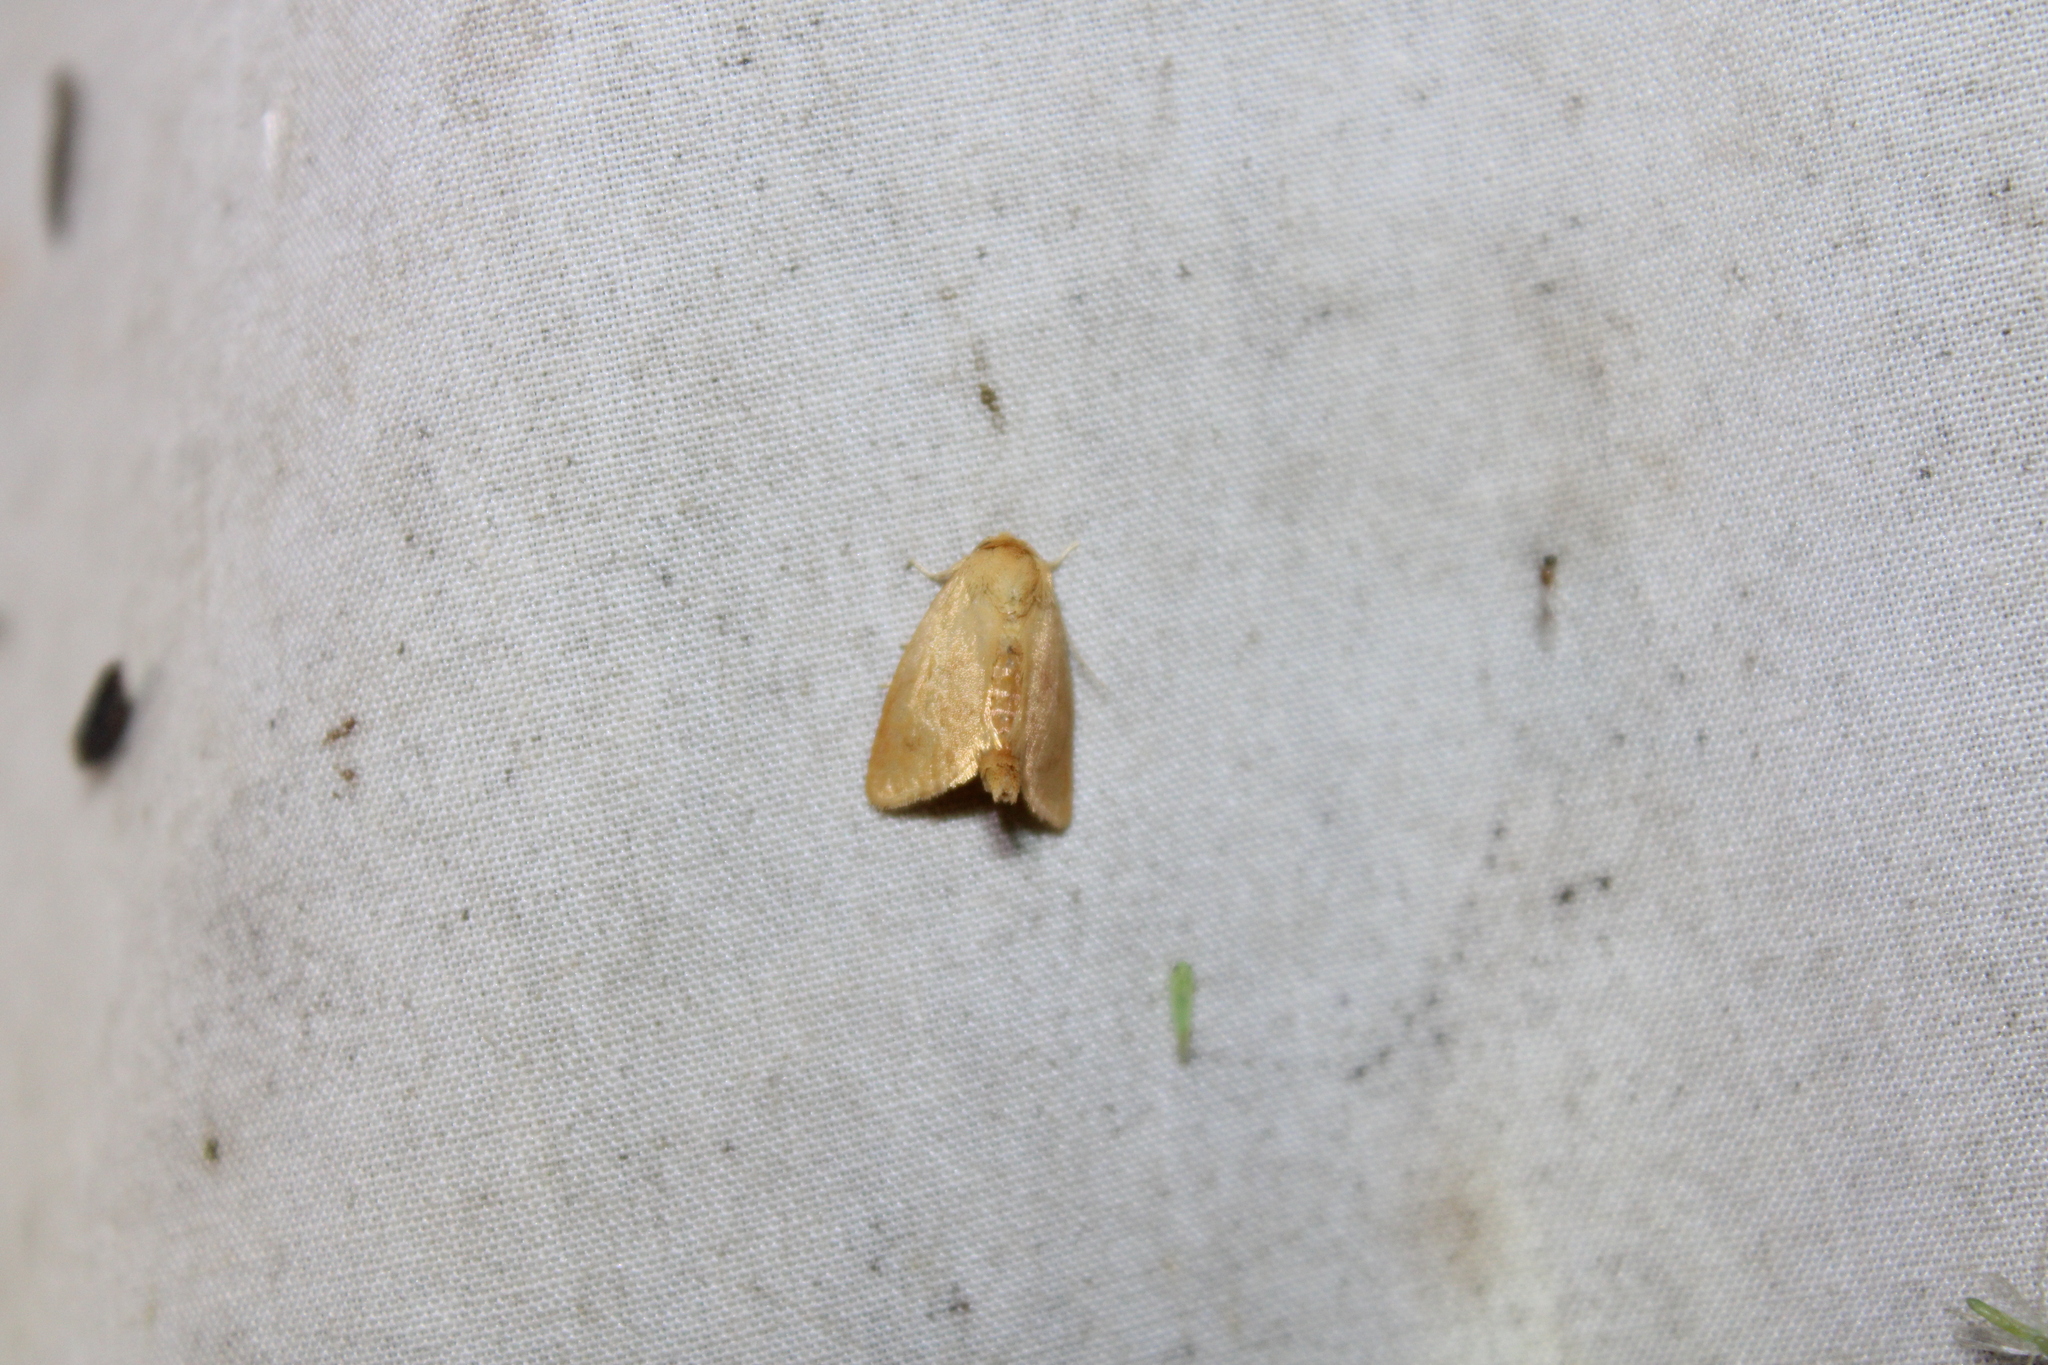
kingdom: Animalia
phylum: Arthropoda
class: Insecta
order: Lepidoptera
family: Limacodidae
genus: Tortricidia
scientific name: Tortricidia pallida
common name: Red-crossed button slug moth
